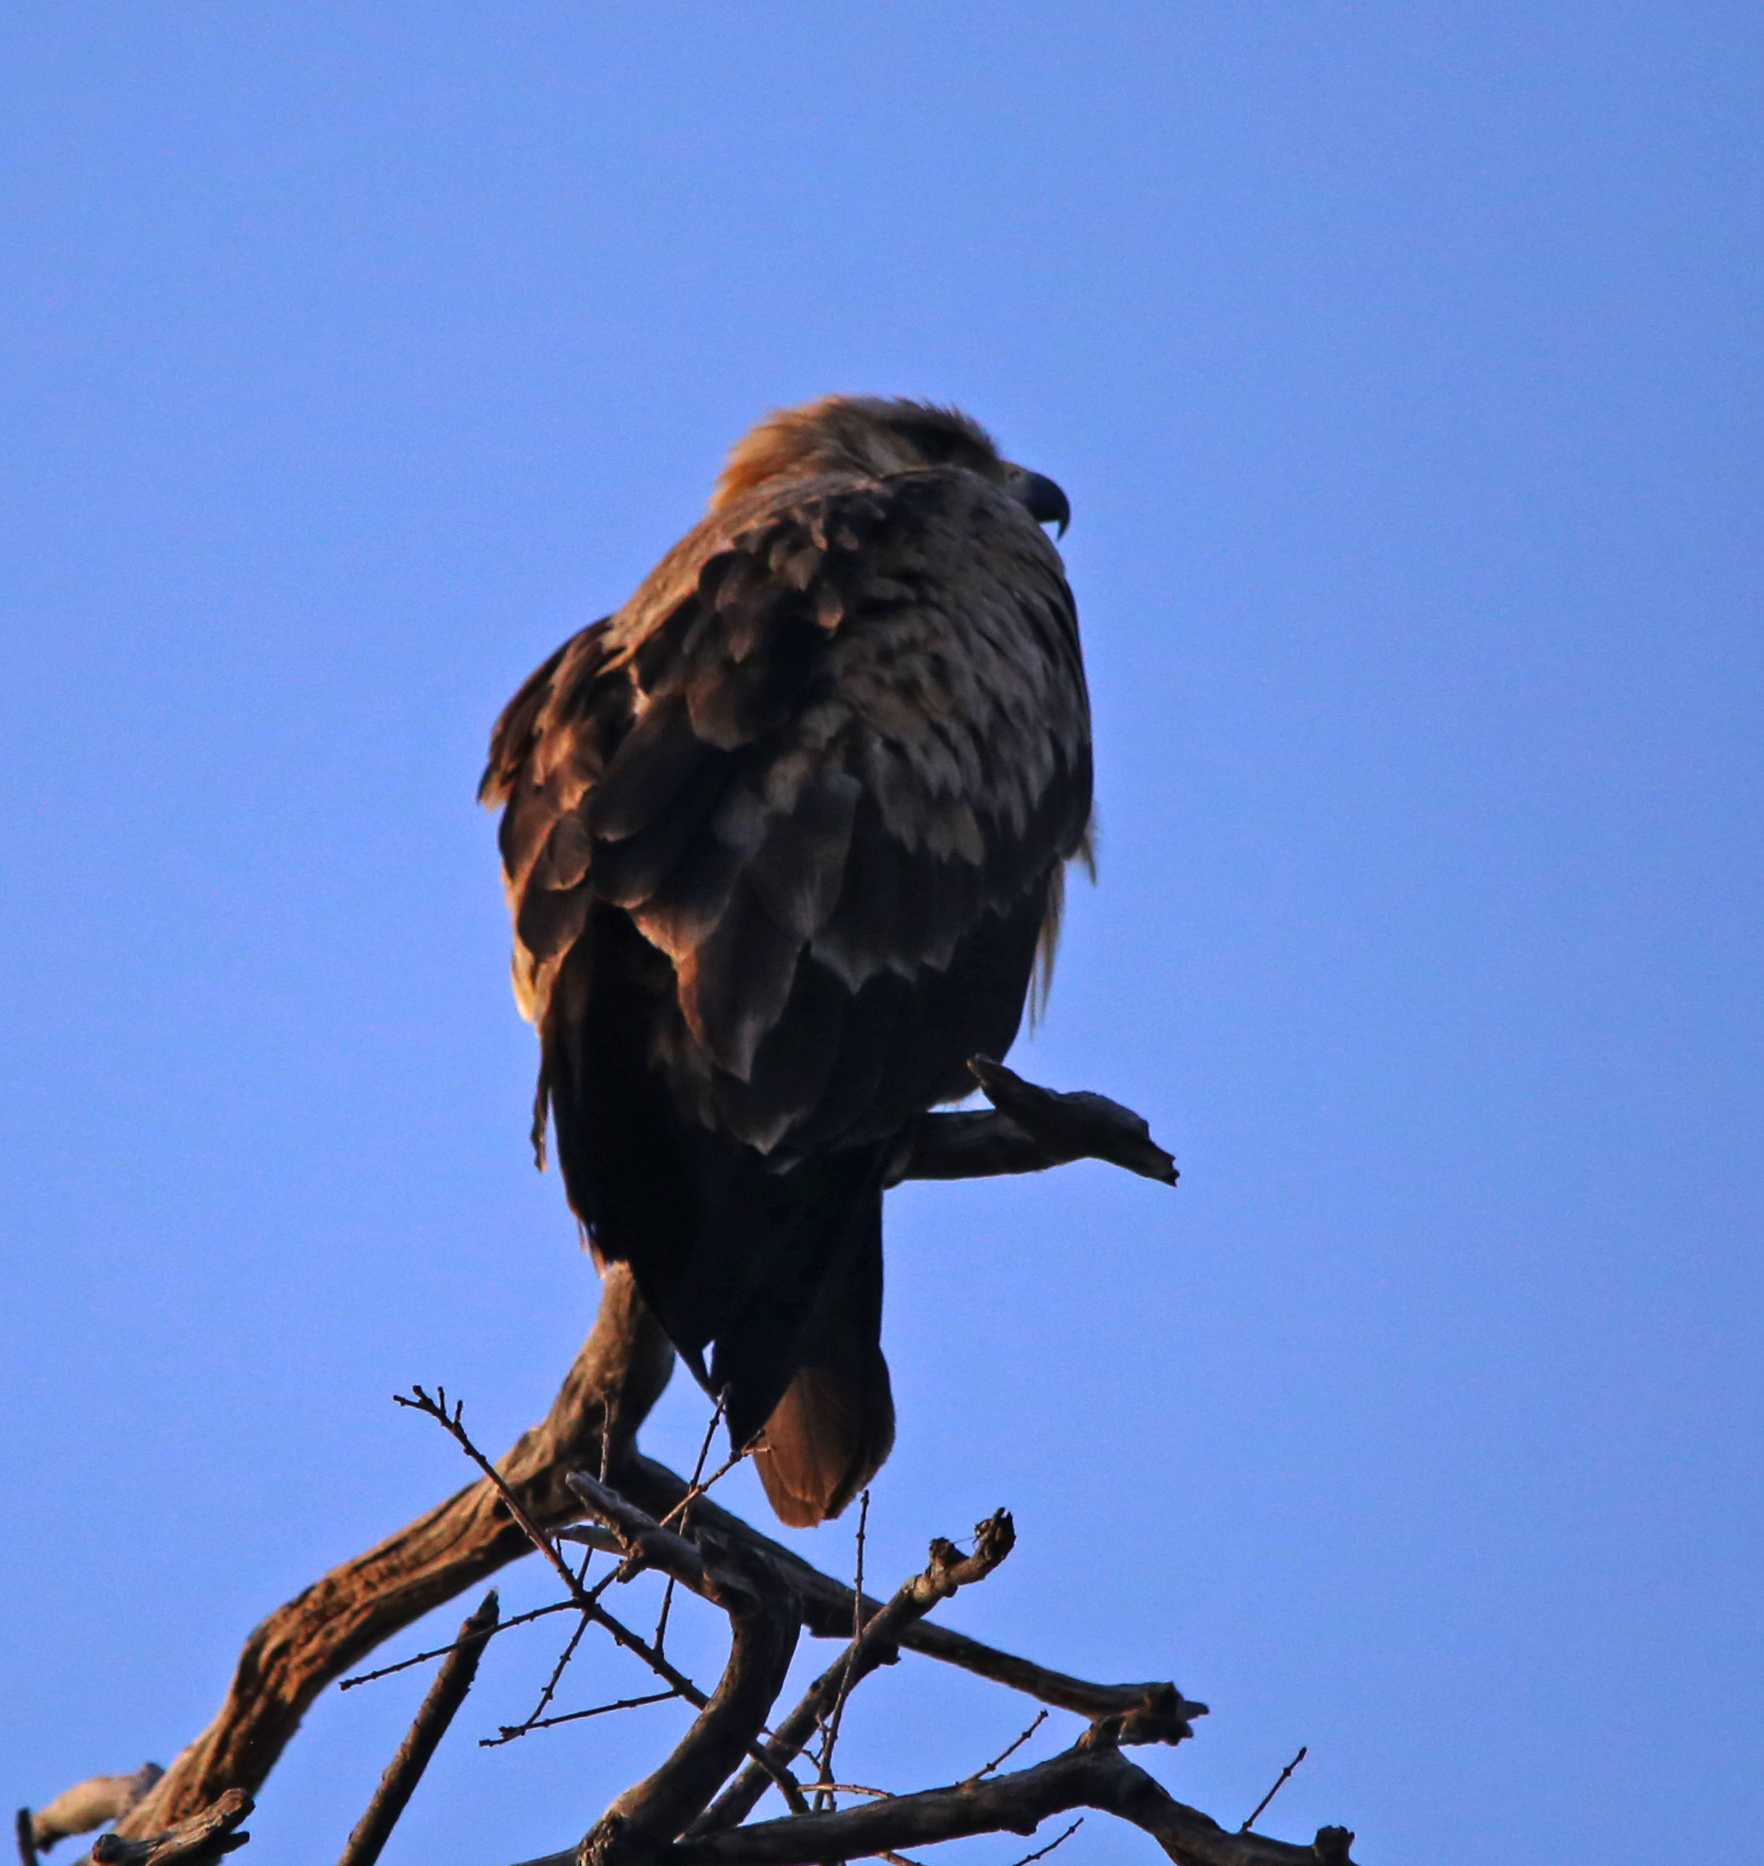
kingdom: Animalia
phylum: Chordata
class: Aves
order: Accipitriformes
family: Accipitridae
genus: Aquila
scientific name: Aquila rapax
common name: Tawny eagle
